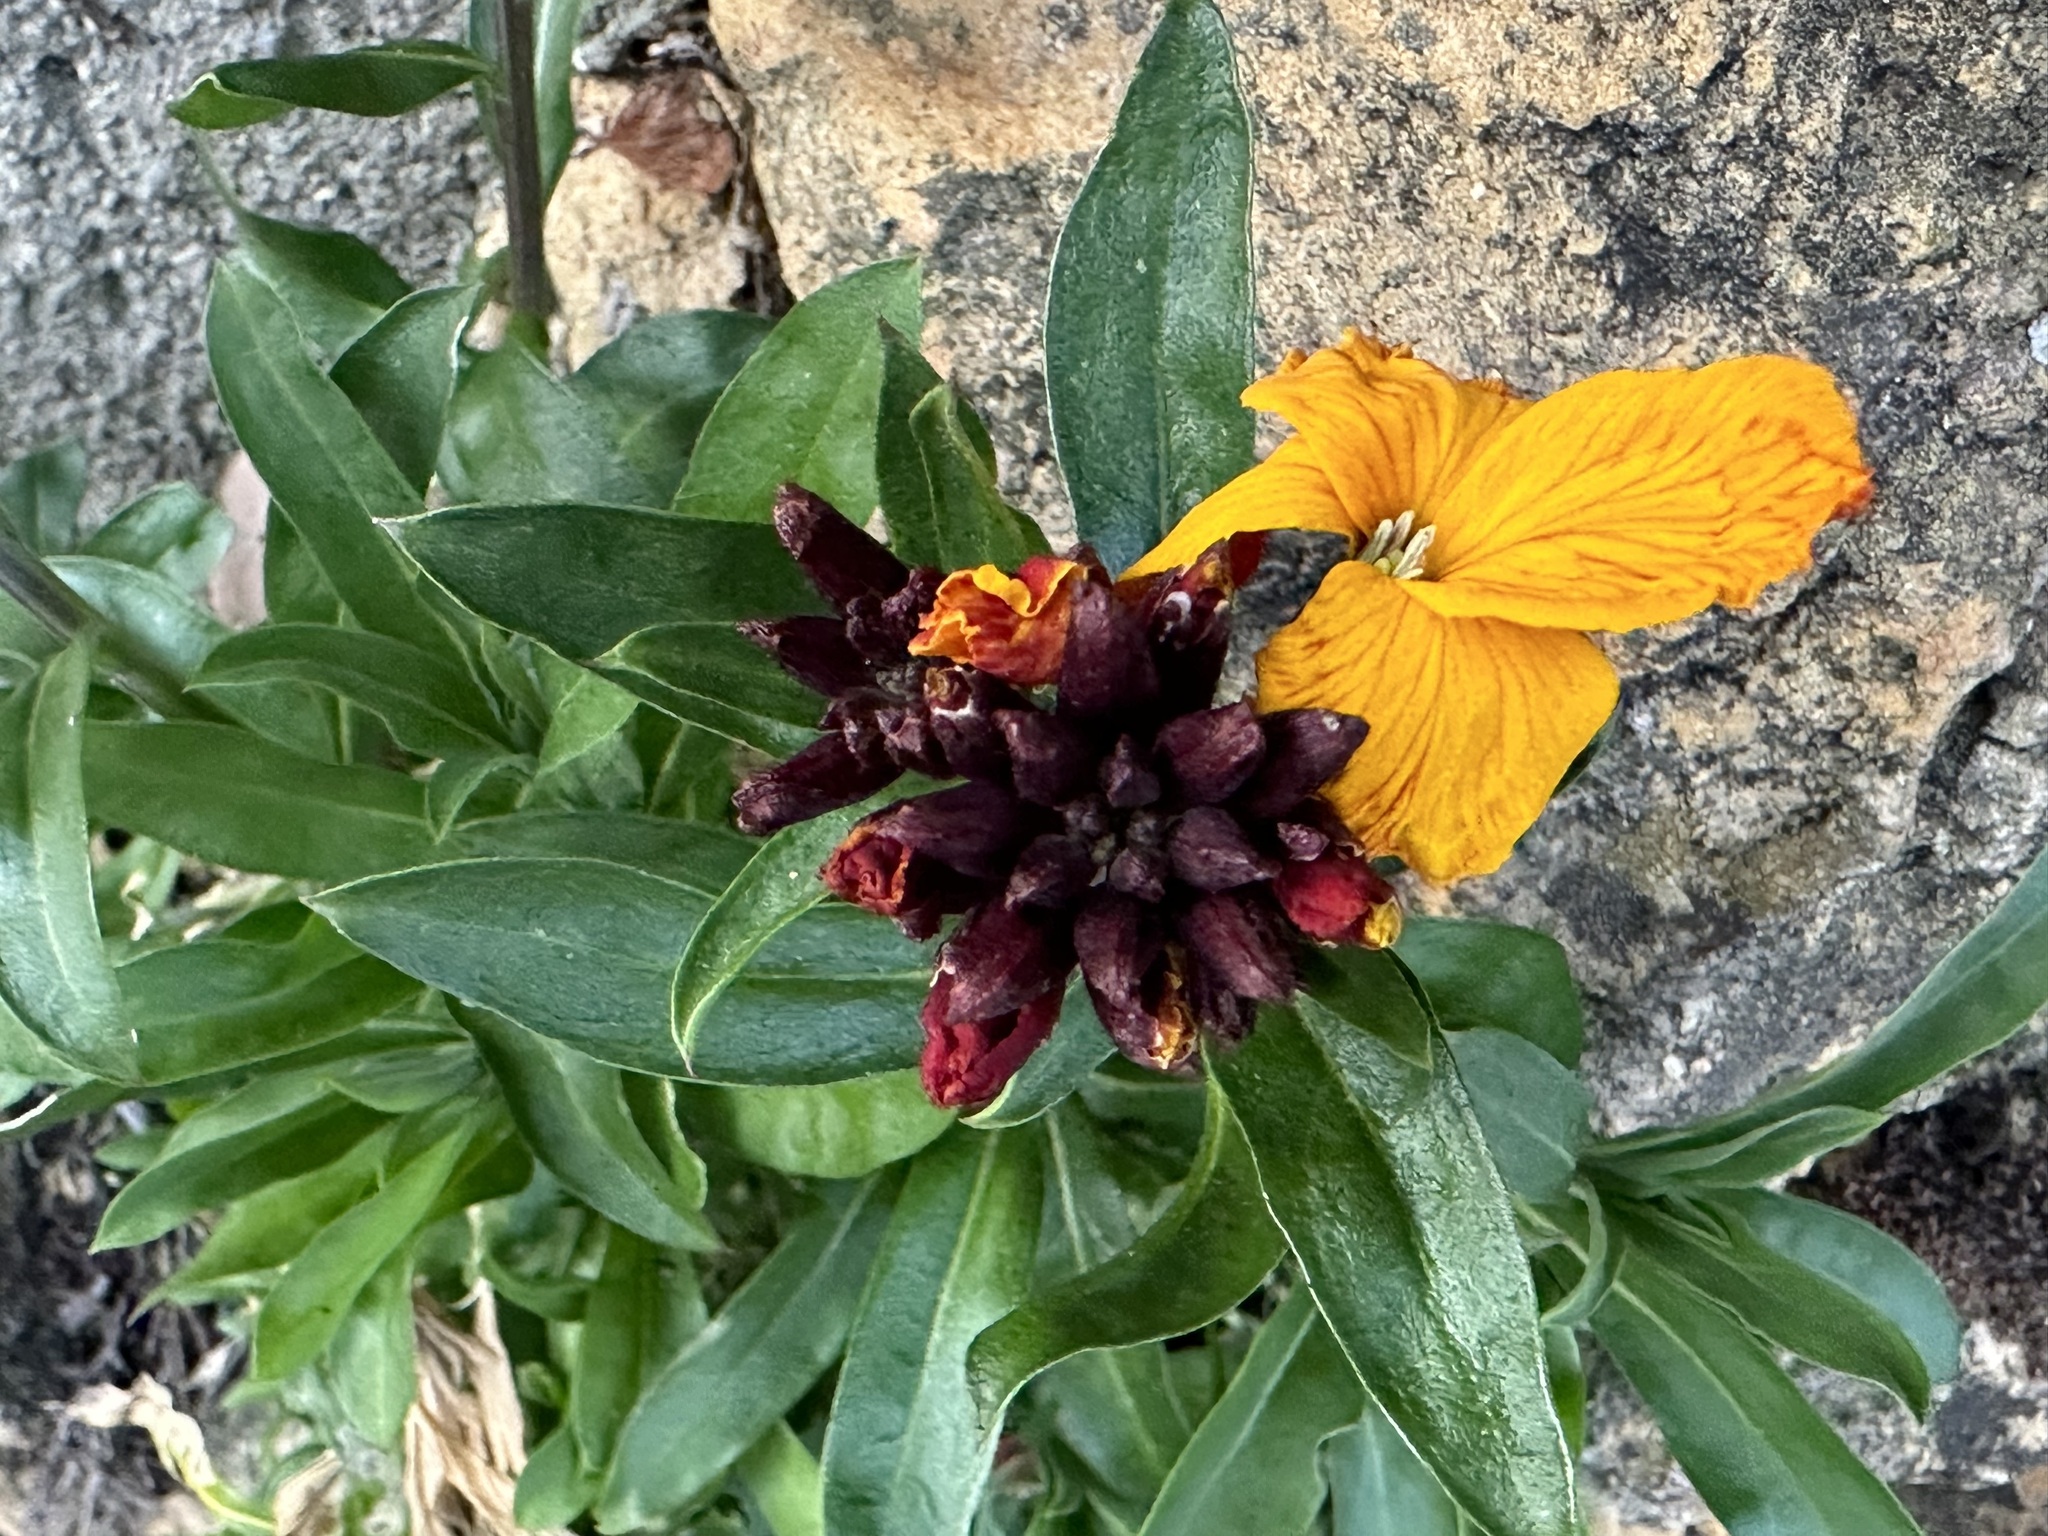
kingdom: Plantae
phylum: Tracheophyta
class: Magnoliopsida
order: Brassicales
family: Brassicaceae
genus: Erysimum
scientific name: Erysimum cheiri
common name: Wallflower
